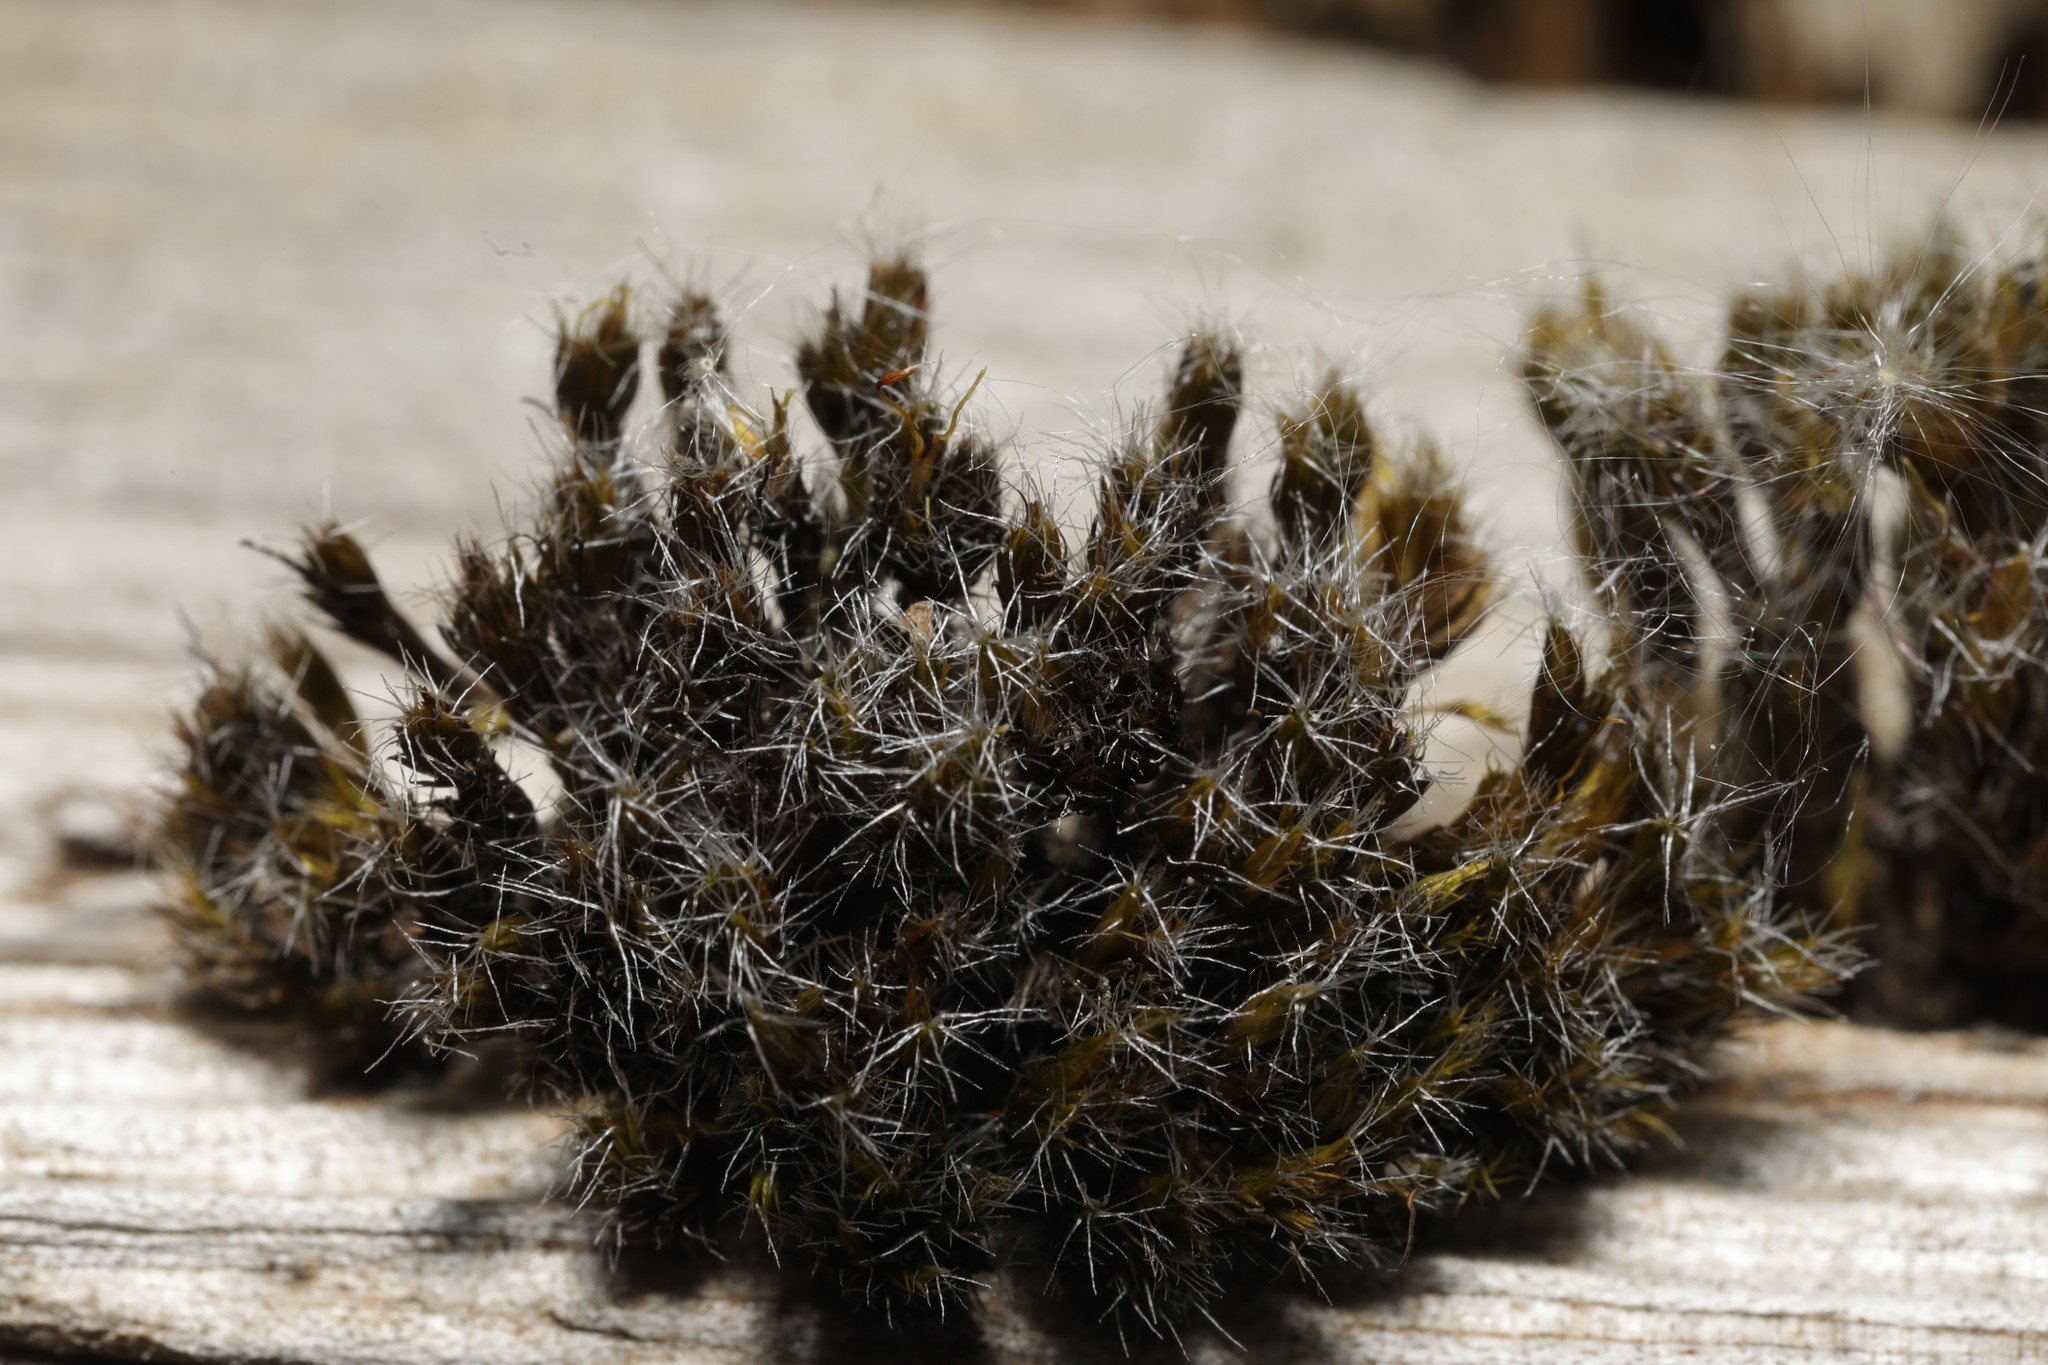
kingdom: Plantae
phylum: Bryophyta
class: Bryopsida
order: Dicranales
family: Leucobryaceae
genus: Campylopus
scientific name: Campylopus introflexus
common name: Heath star moss
